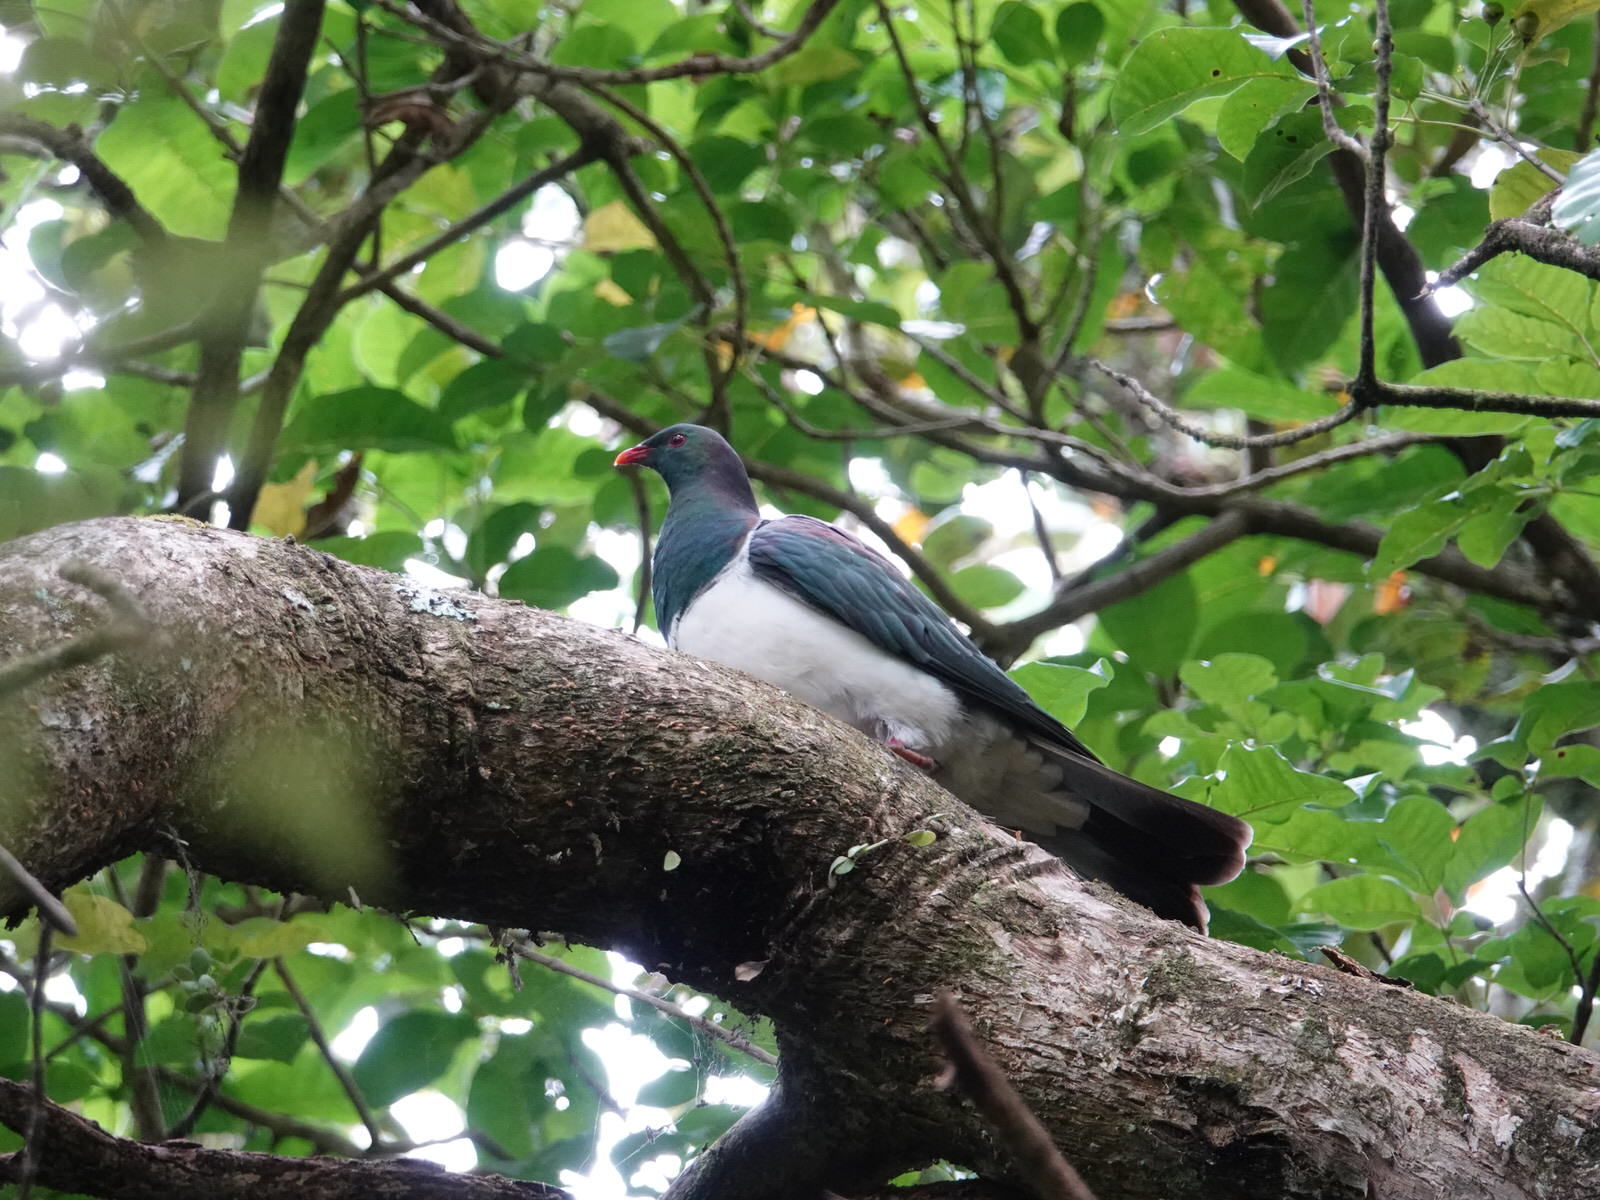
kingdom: Animalia
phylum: Chordata
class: Aves
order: Columbiformes
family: Columbidae
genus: Hemiphaga
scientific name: Hemiphaga novaeseelandiae
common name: New zealand pigeon
